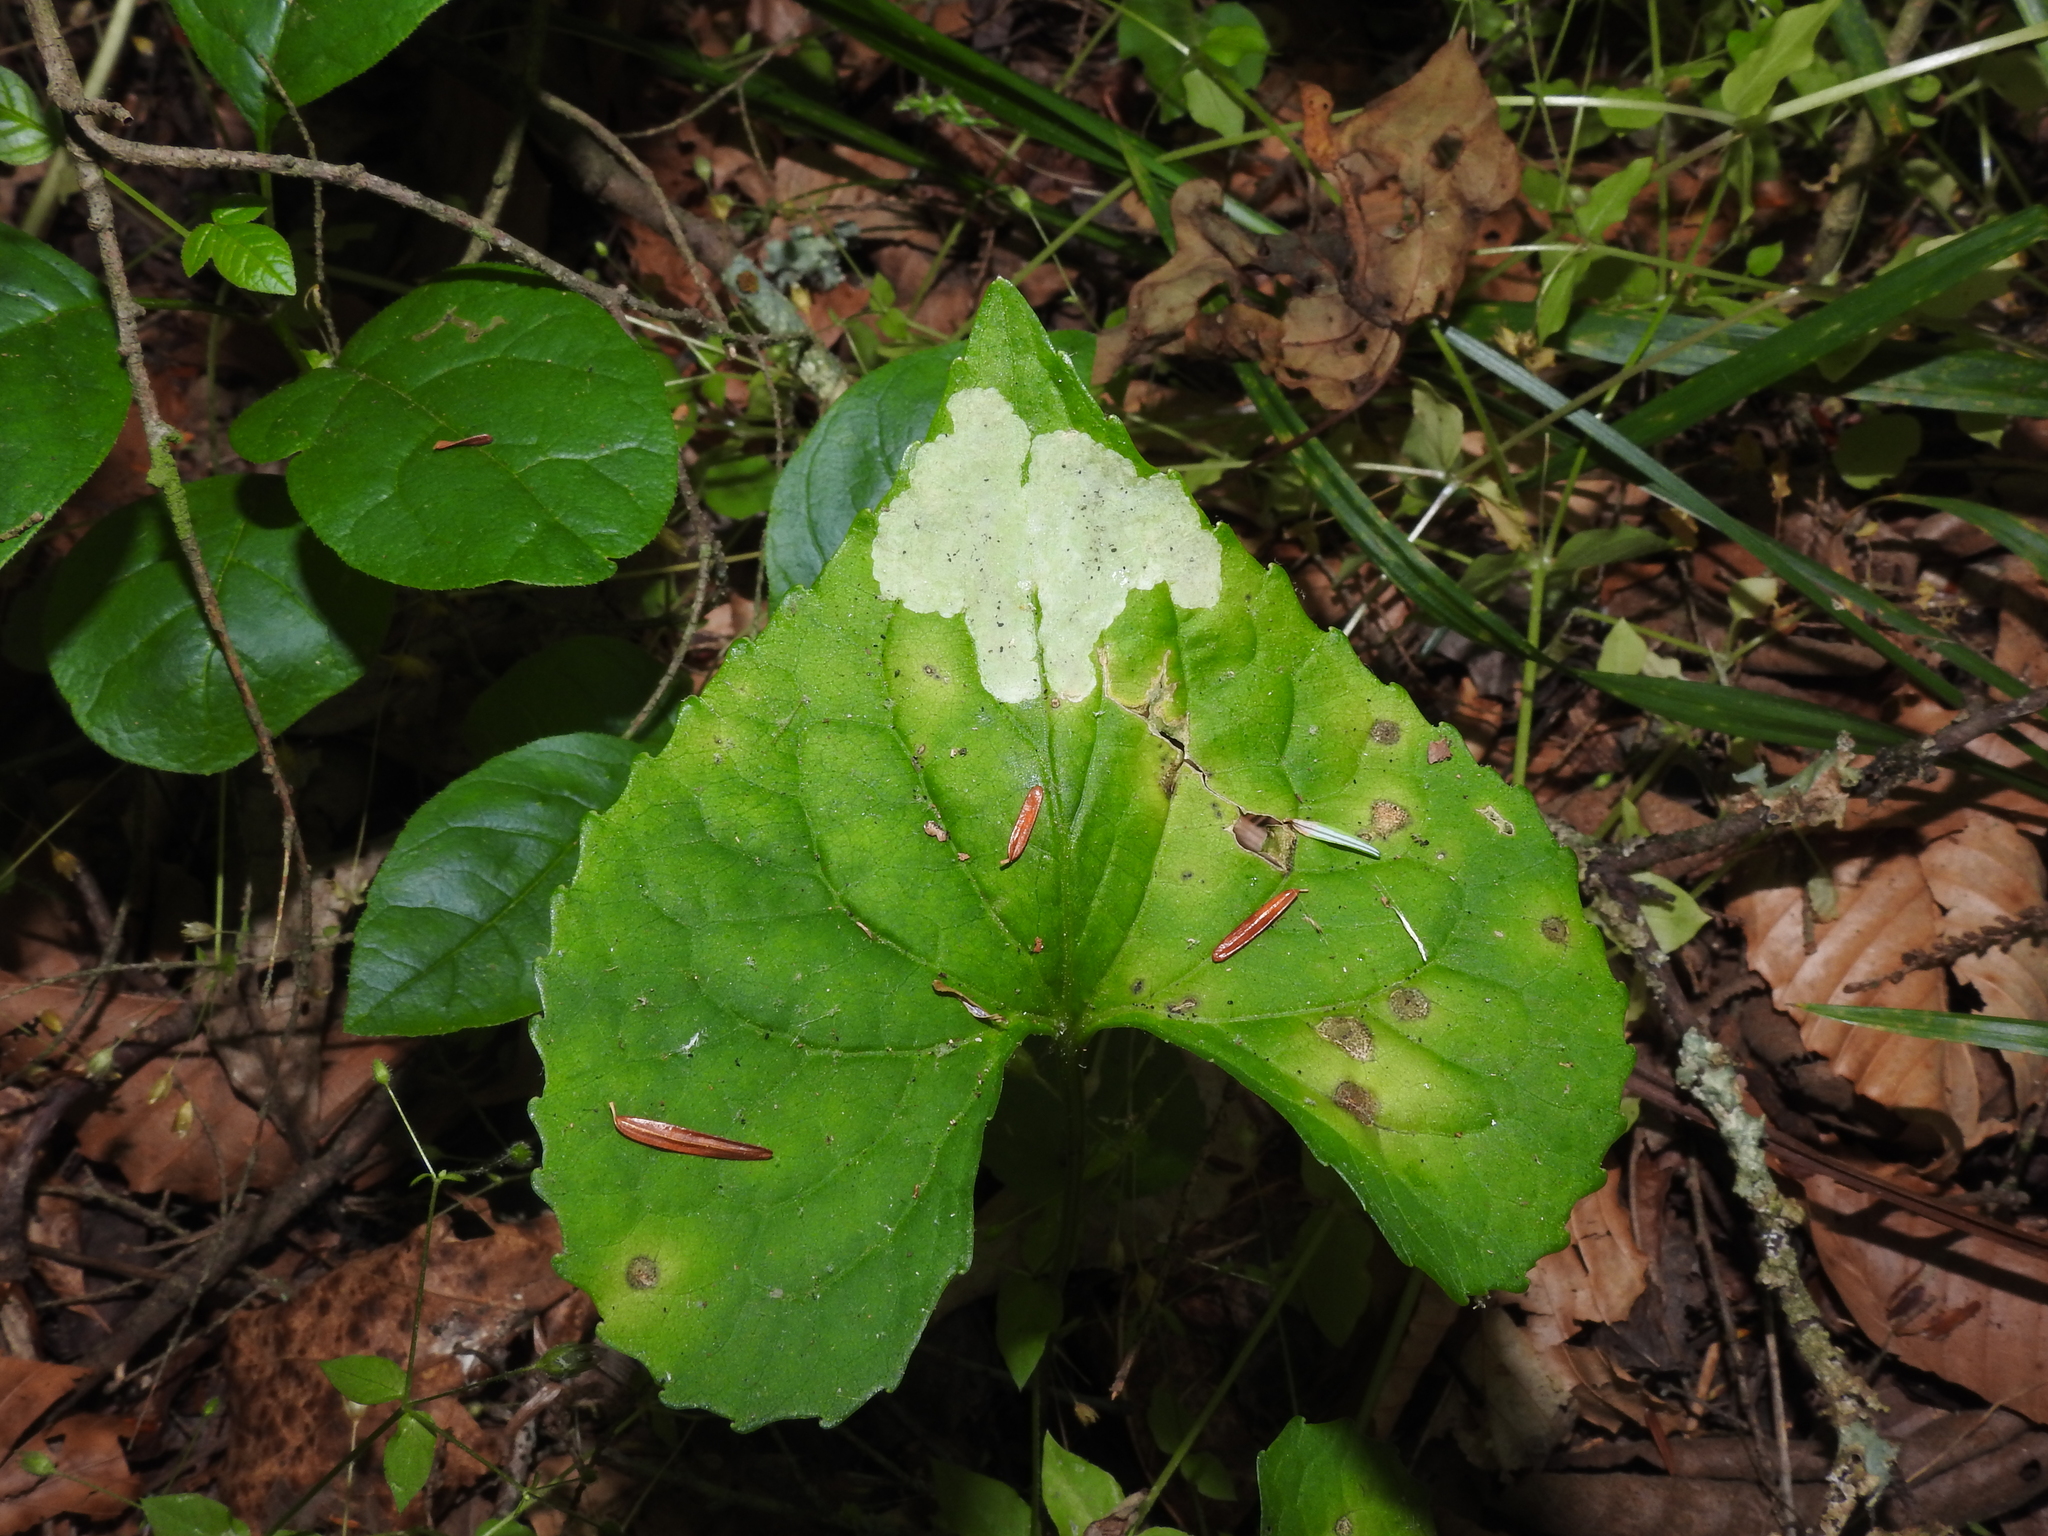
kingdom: Animalia
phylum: Arthropoda
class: Insecta
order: Diptera
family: Agromyzidae
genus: Liriomyza
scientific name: Liriomyza violivora
